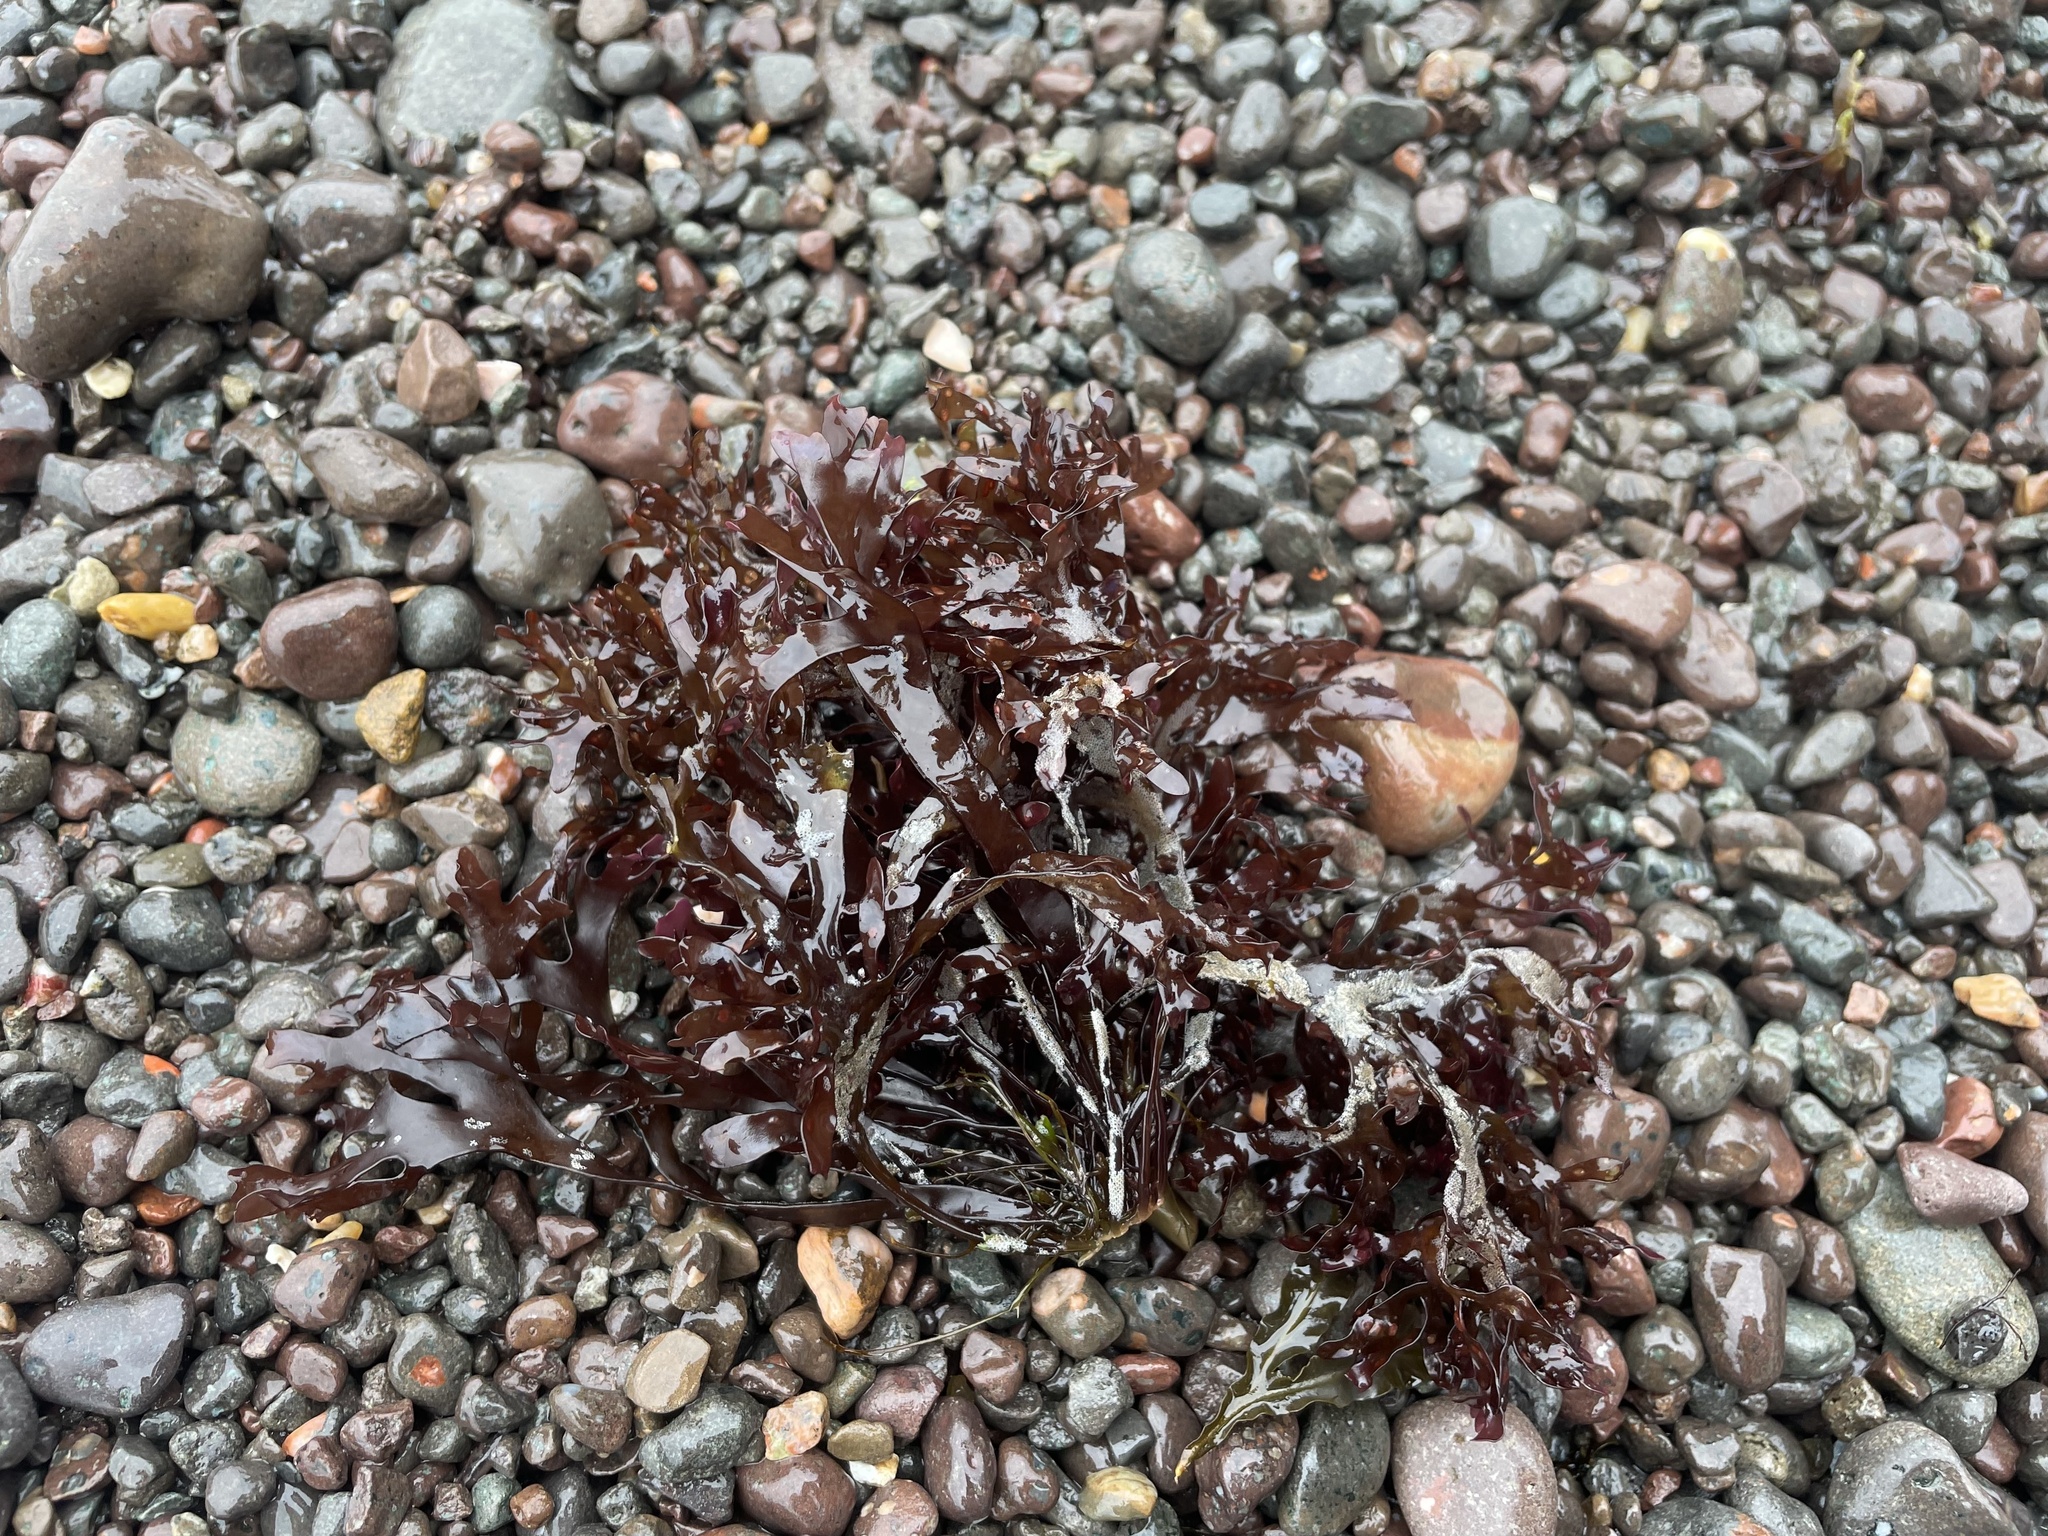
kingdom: Plantae
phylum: Rhodophyta
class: Florideophyceae
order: Gigartinales
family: Gigartinaceae
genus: Chondrus
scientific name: Chondrus crispus
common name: Carrageen
